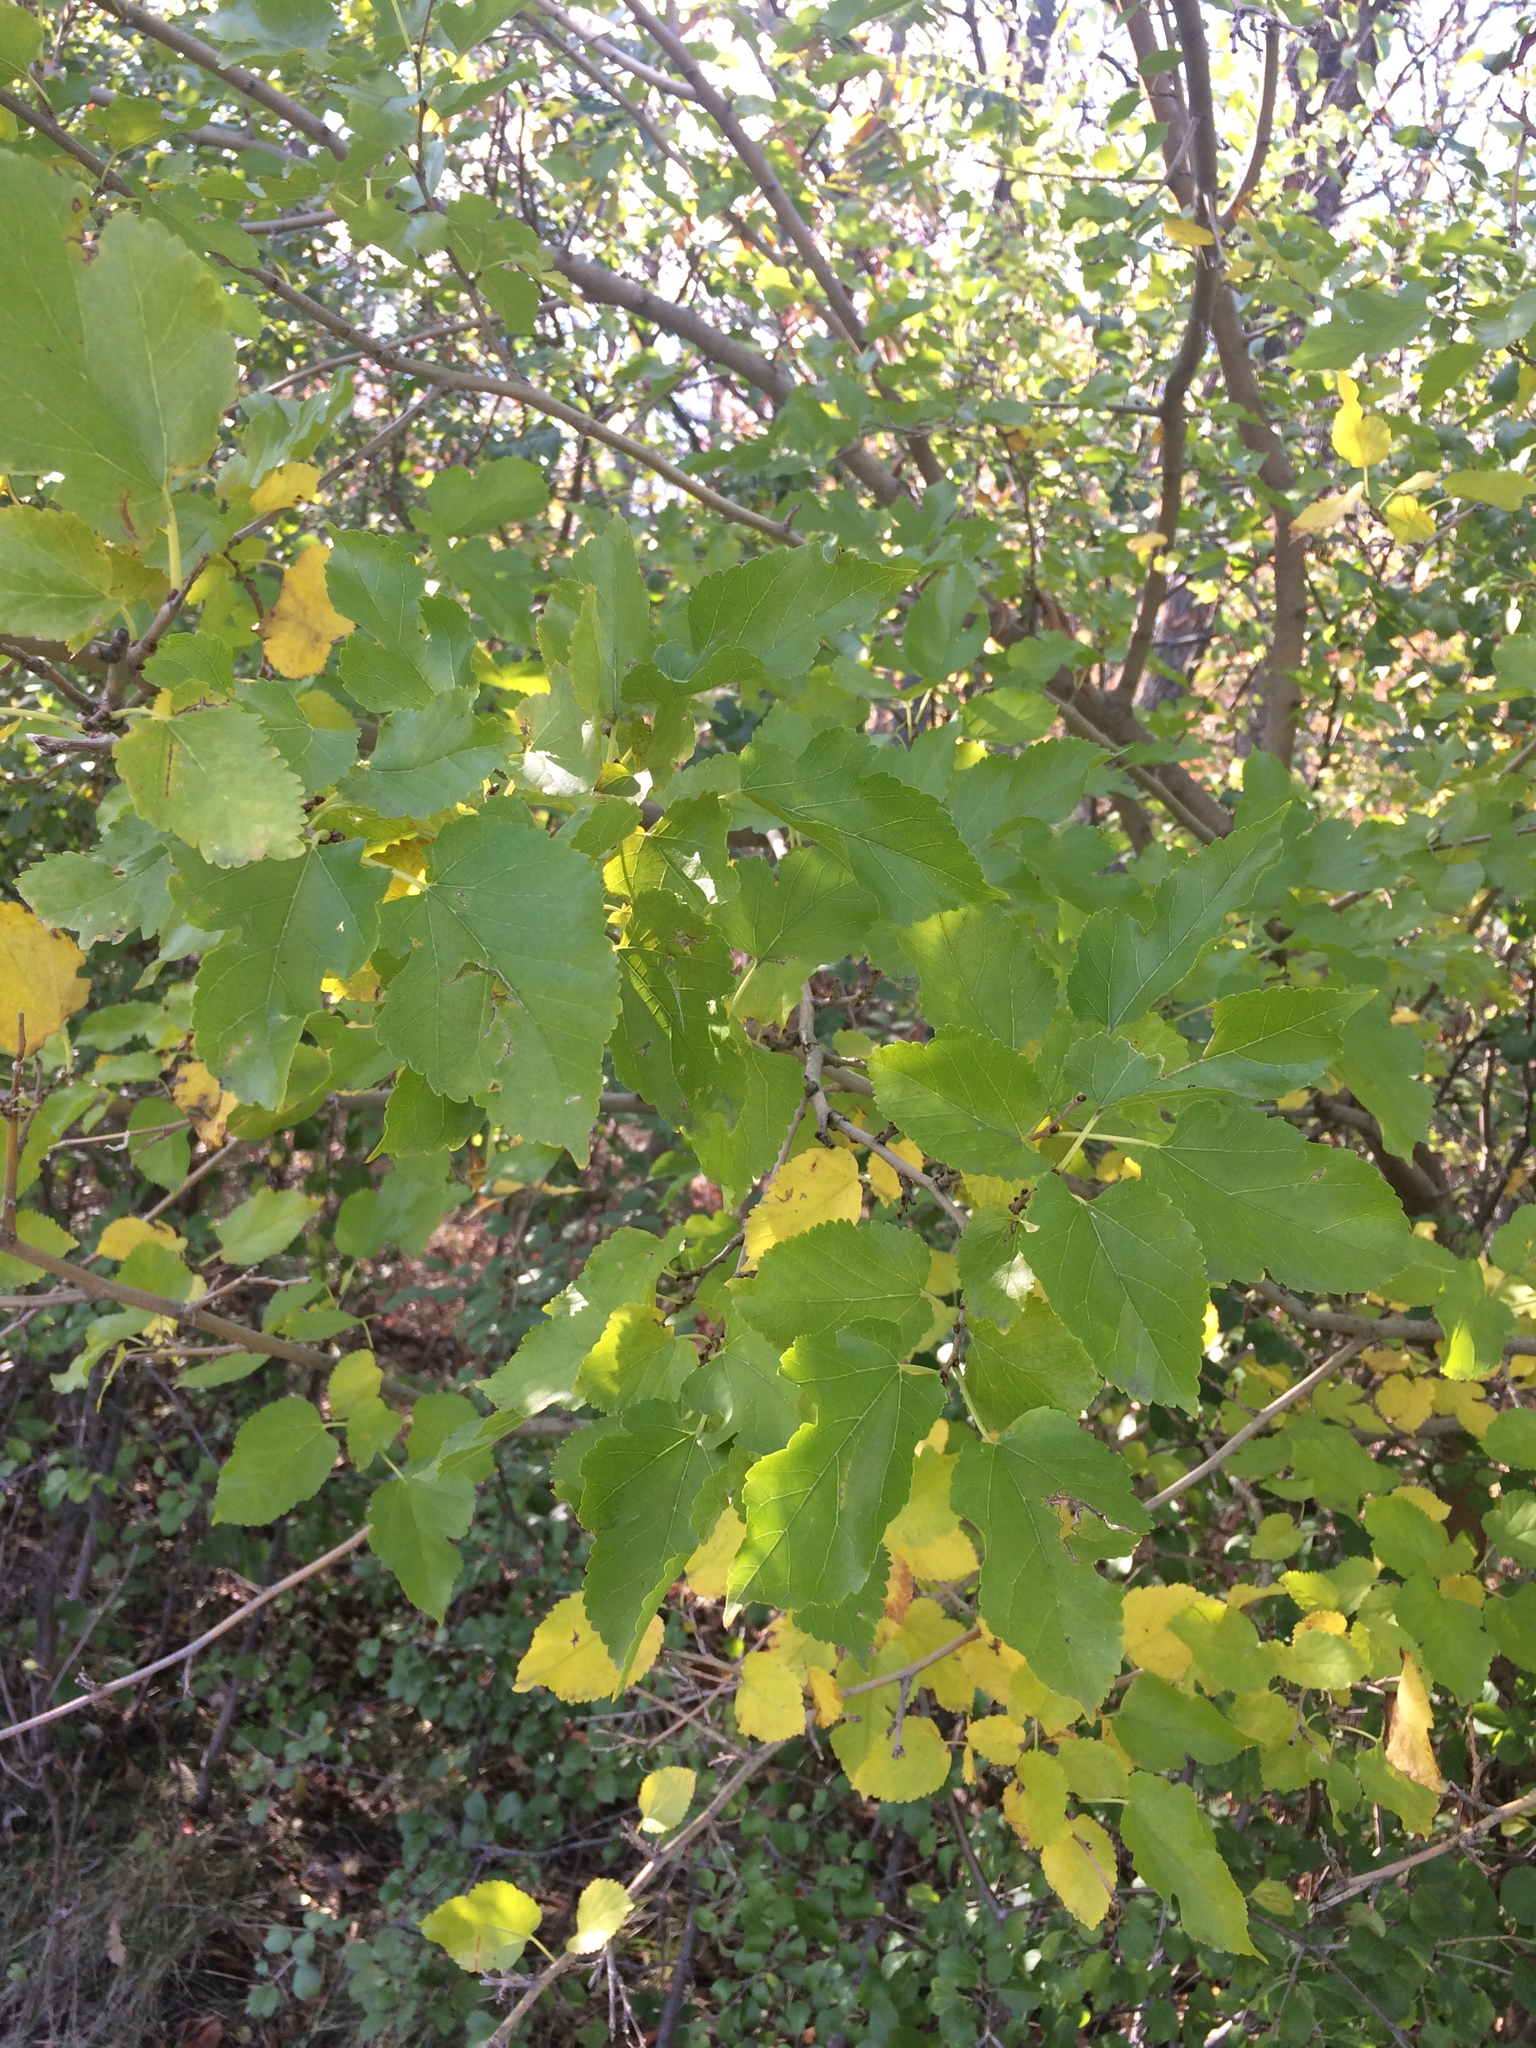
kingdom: Plantae
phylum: Tracheophyta
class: Magnoliopsida
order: Rosales
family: Moraceae
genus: Morus
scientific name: Morus alba
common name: White mulberry
